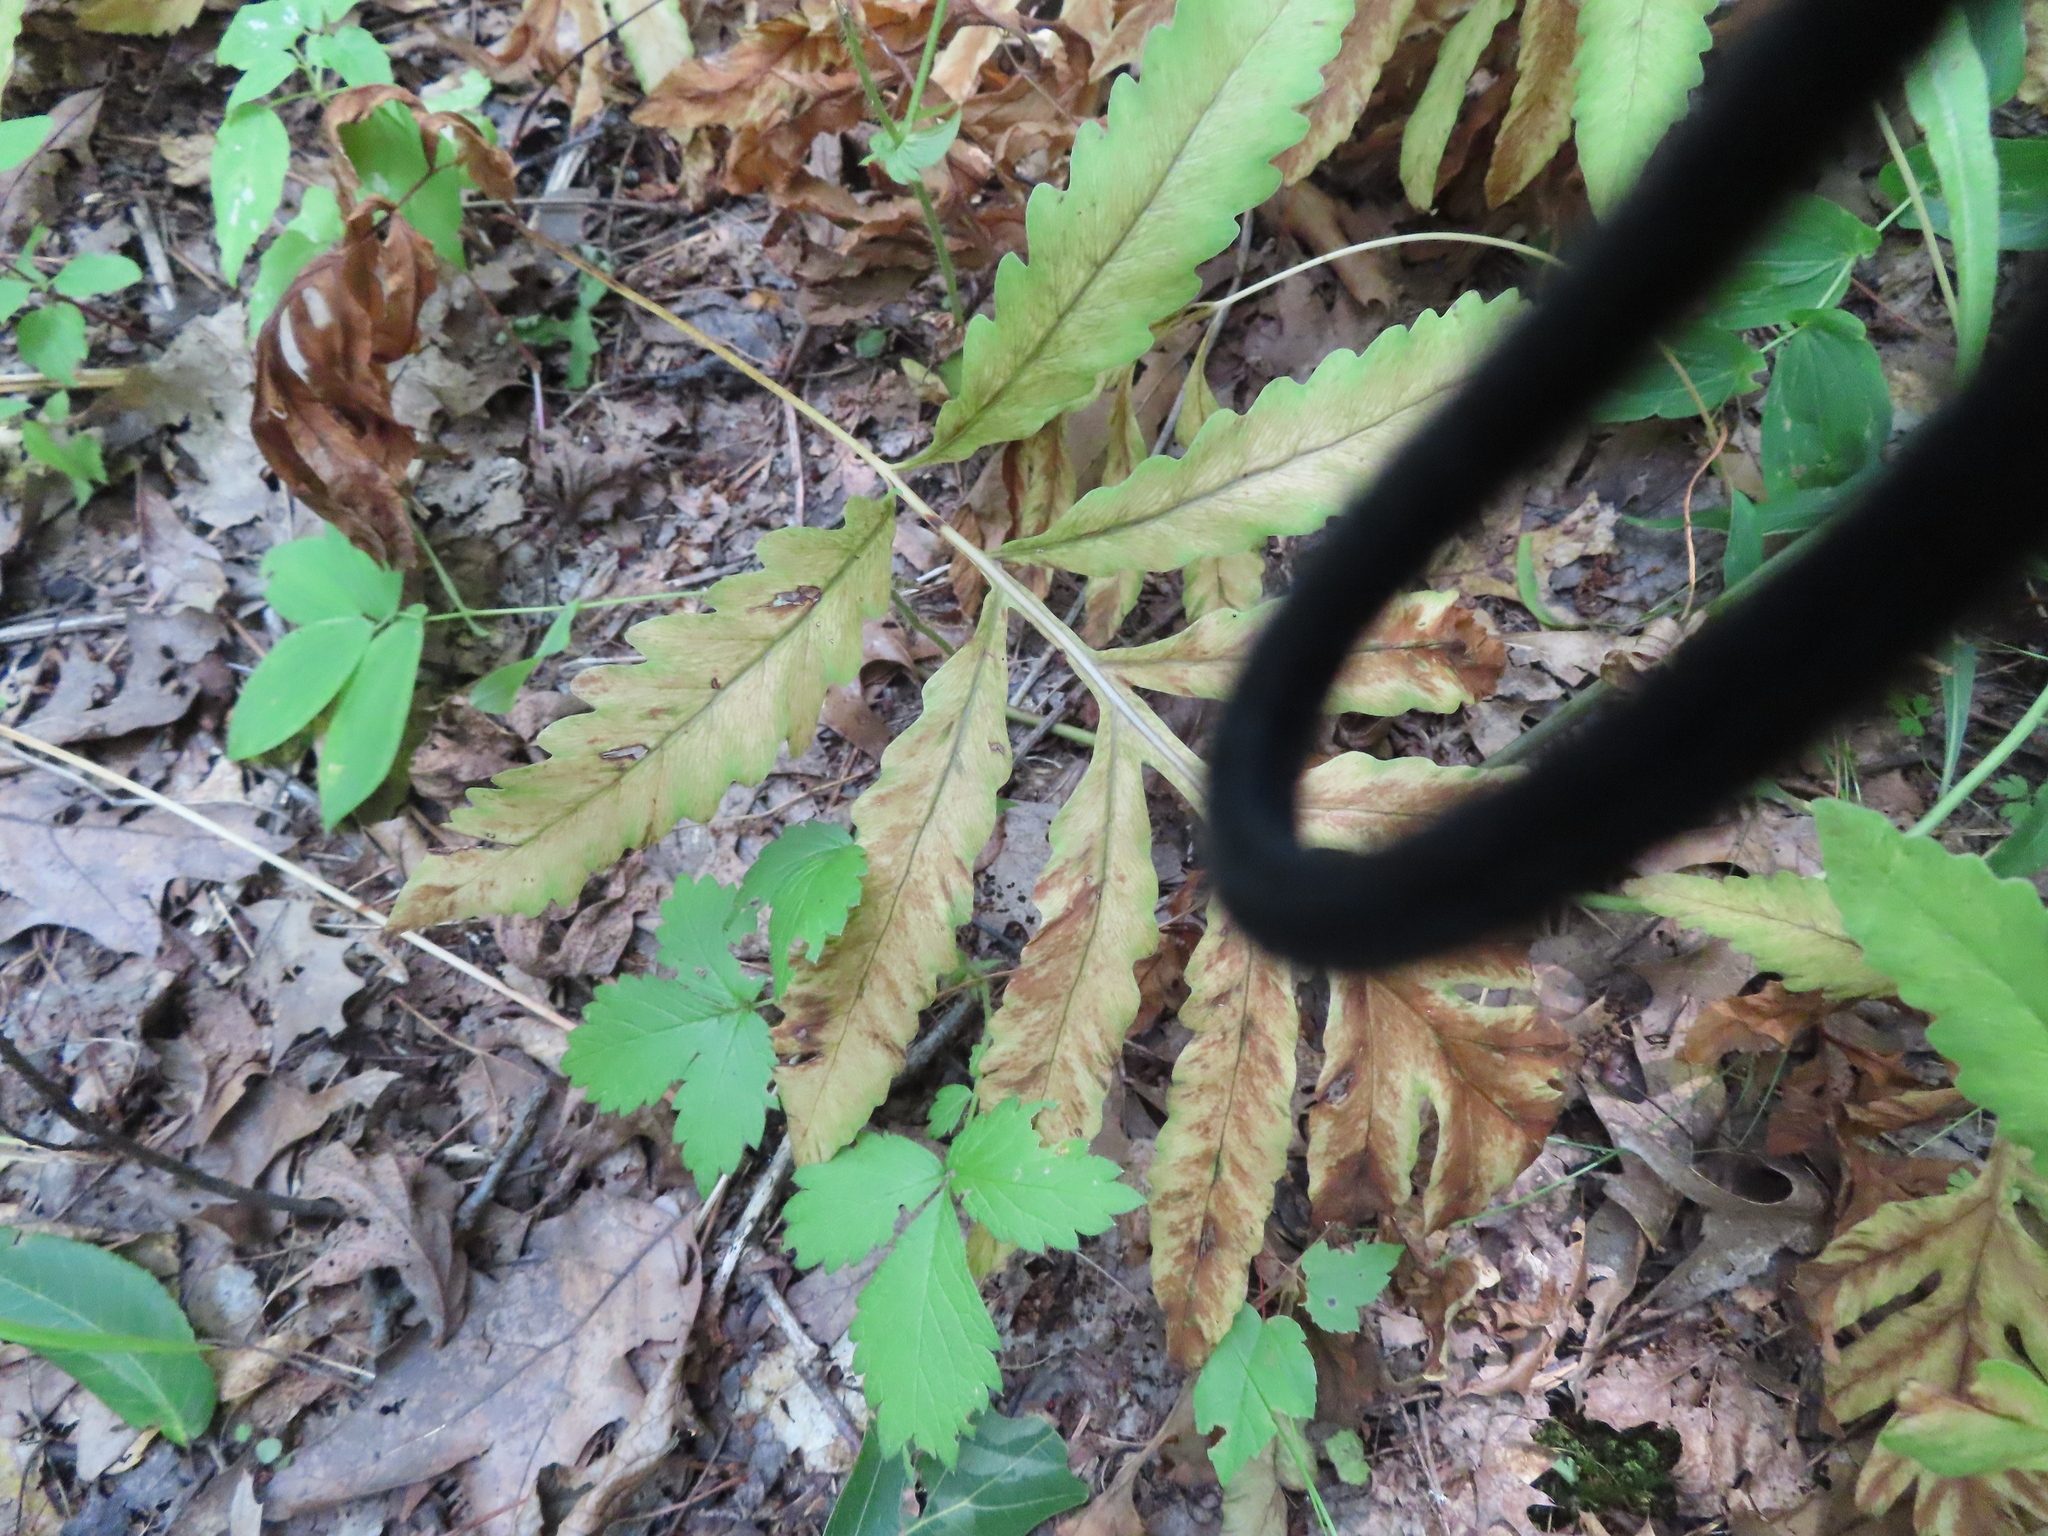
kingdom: Plantae
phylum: Tracheophyta
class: Polypodiopsida
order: Polypodiales
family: Onocleaceae
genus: Onoclea
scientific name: Onoclea sensibilis
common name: Sensitive fern
